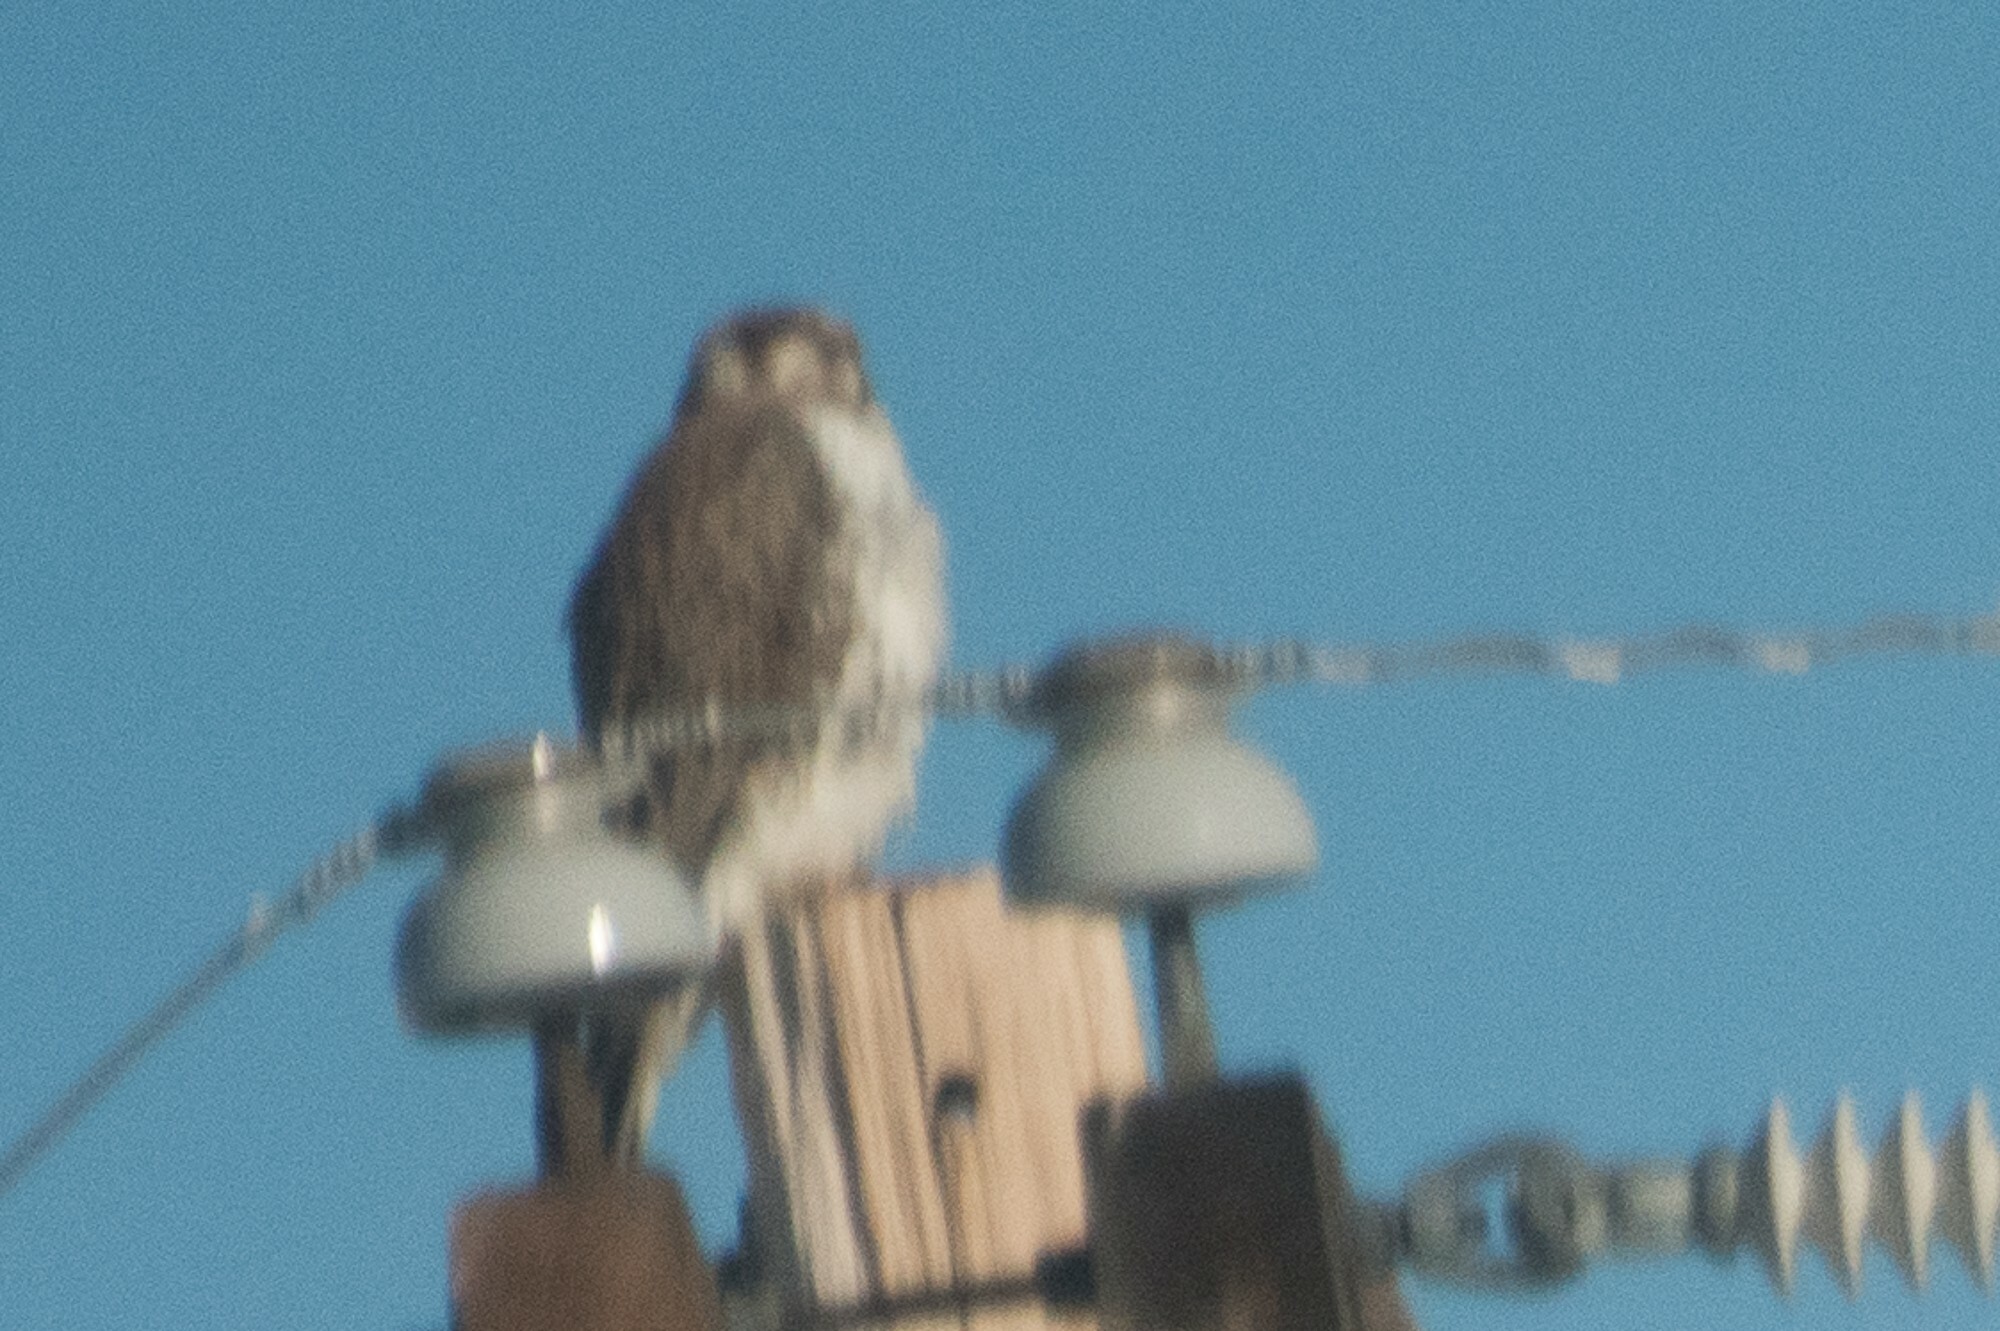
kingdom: Animalia
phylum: Chordata
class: Aves
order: Falconiformes
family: Falconidae
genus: Falco
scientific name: Falco mexicanus
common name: Prairie falcon
